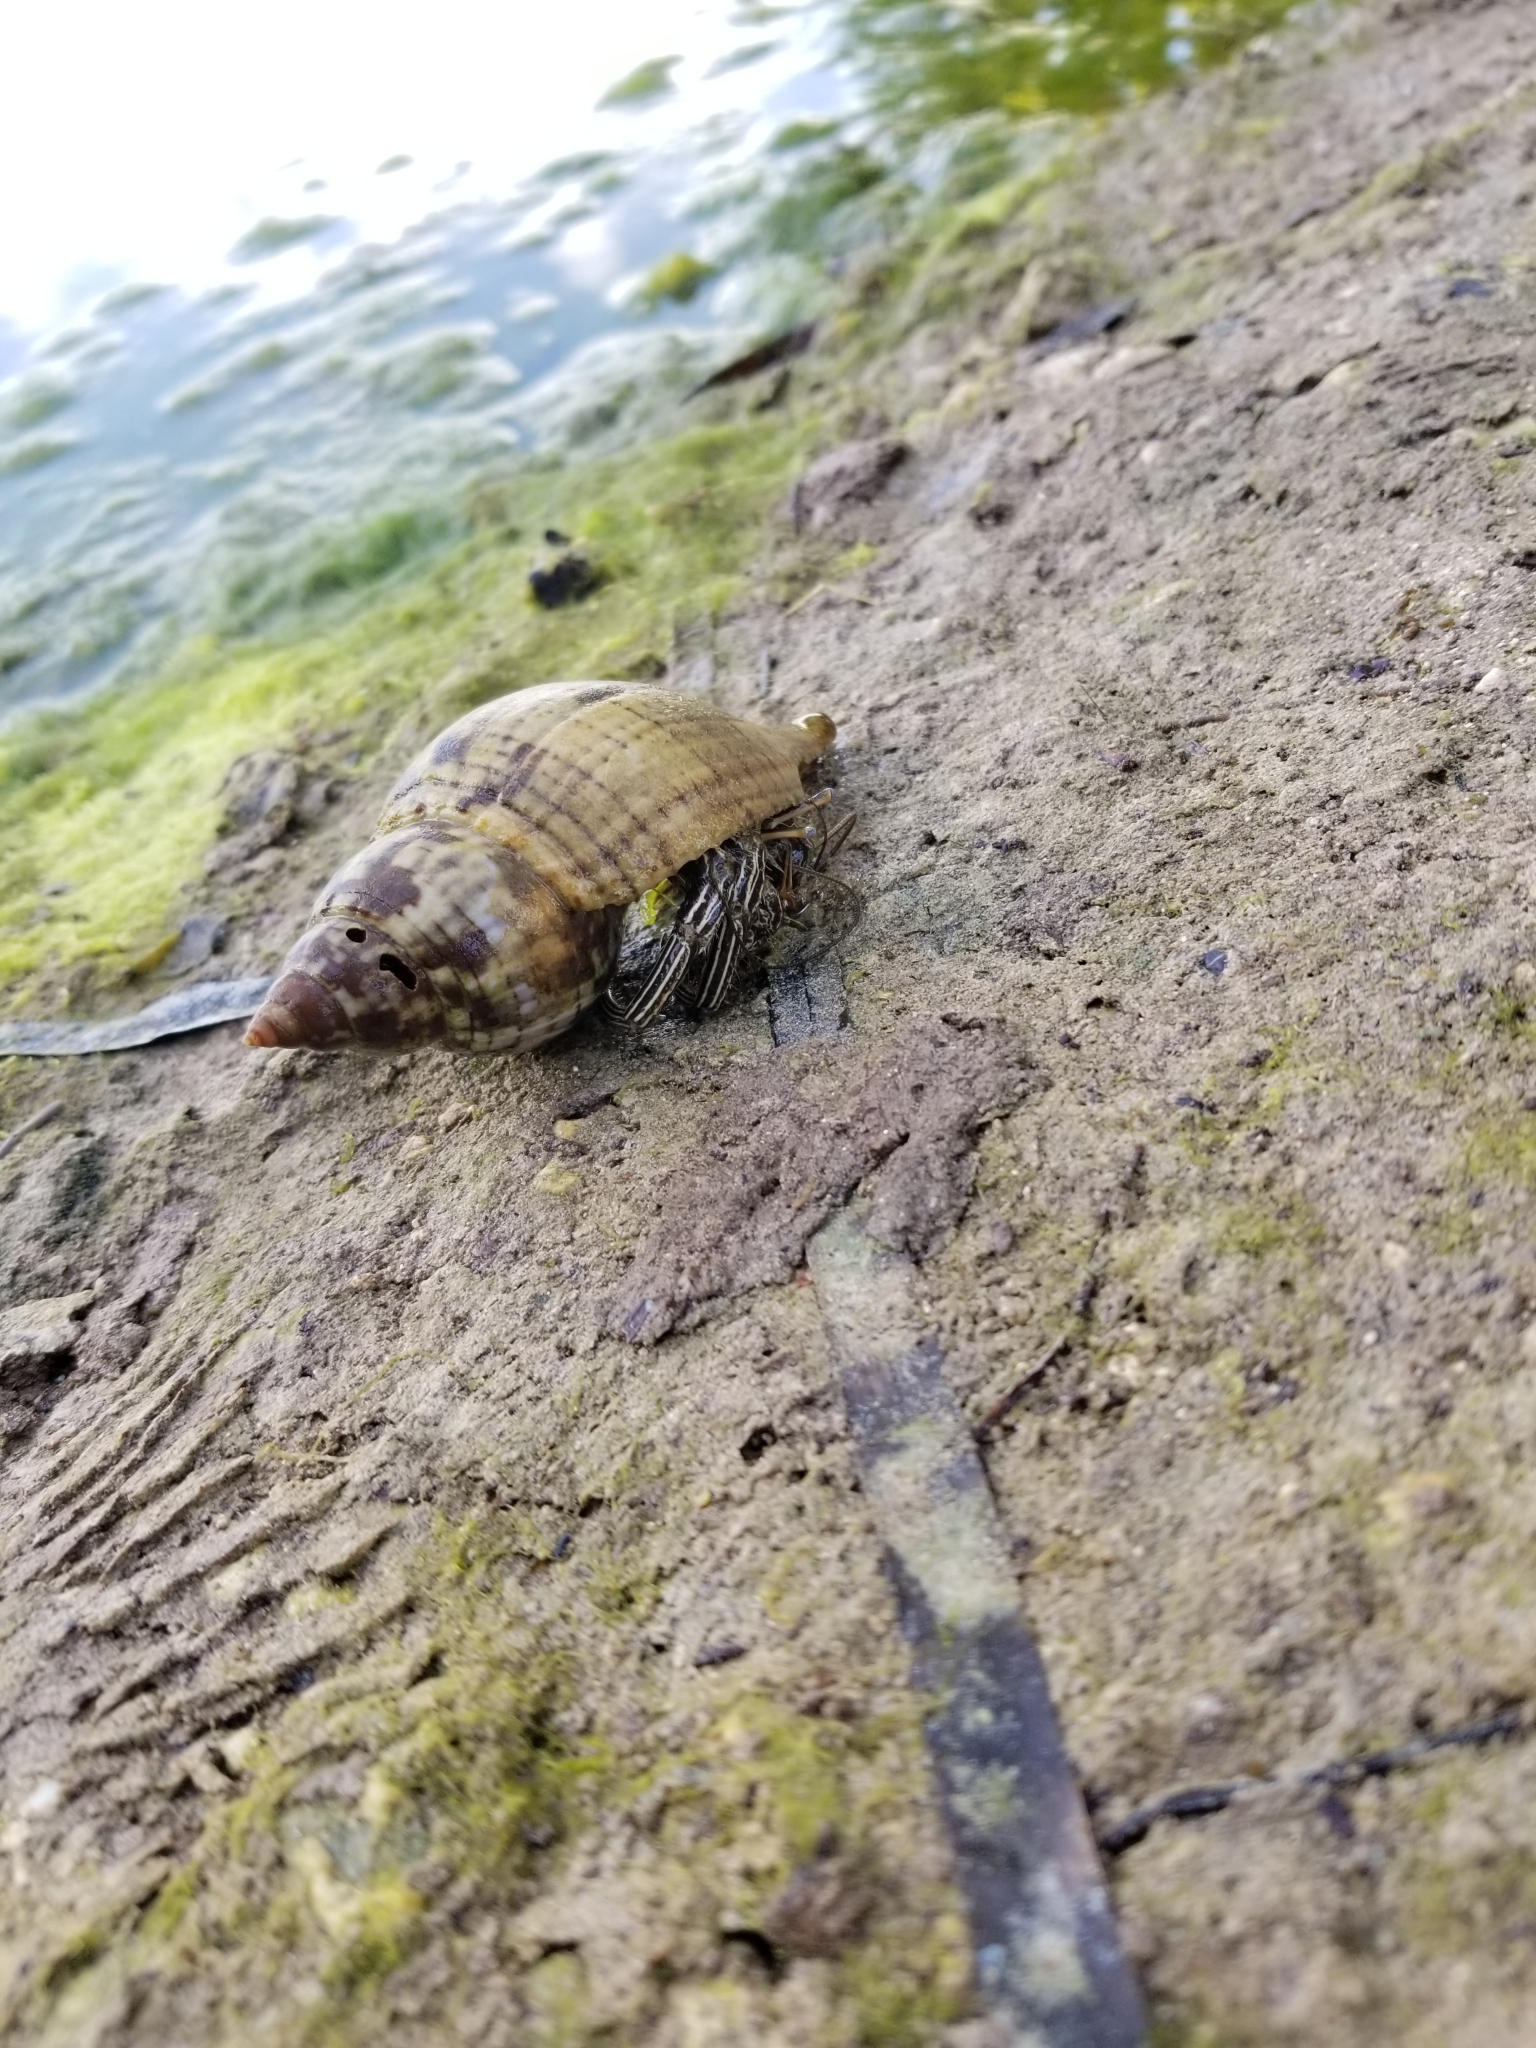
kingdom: Animalia
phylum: Arthropoda
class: Malacostraca
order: Decapoda
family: Diogenidae
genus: Clibanarius
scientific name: Clibanarius vittatus
